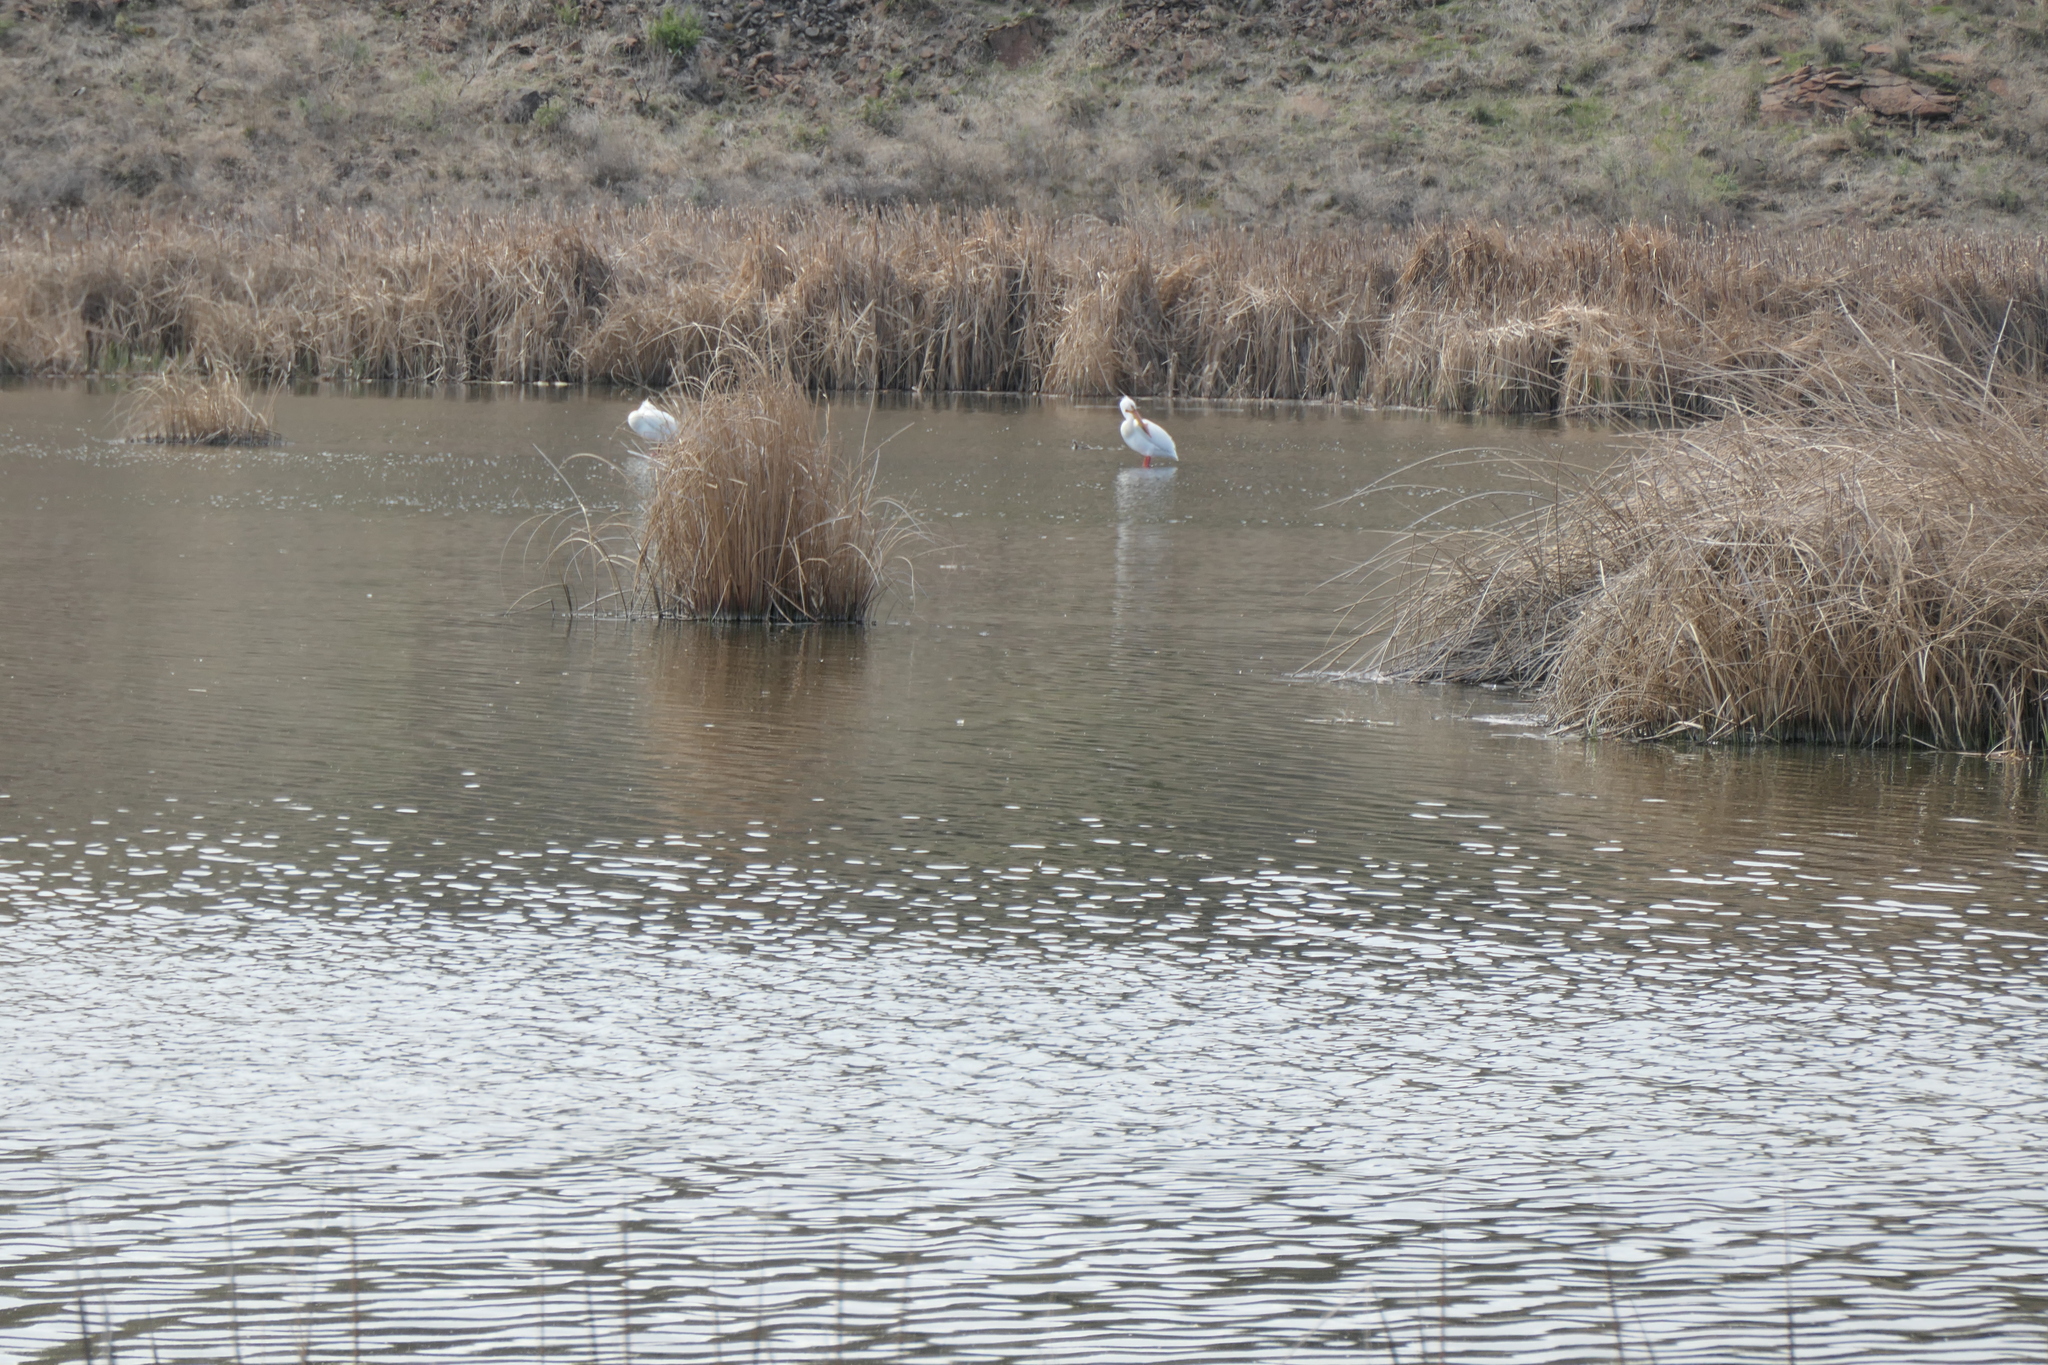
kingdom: Animalia
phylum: Chordata
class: Aves
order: Pelecaniformes
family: Pelecanidae
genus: Pelecanus
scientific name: Pelecanus erythrorhynchos
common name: American white pelican
